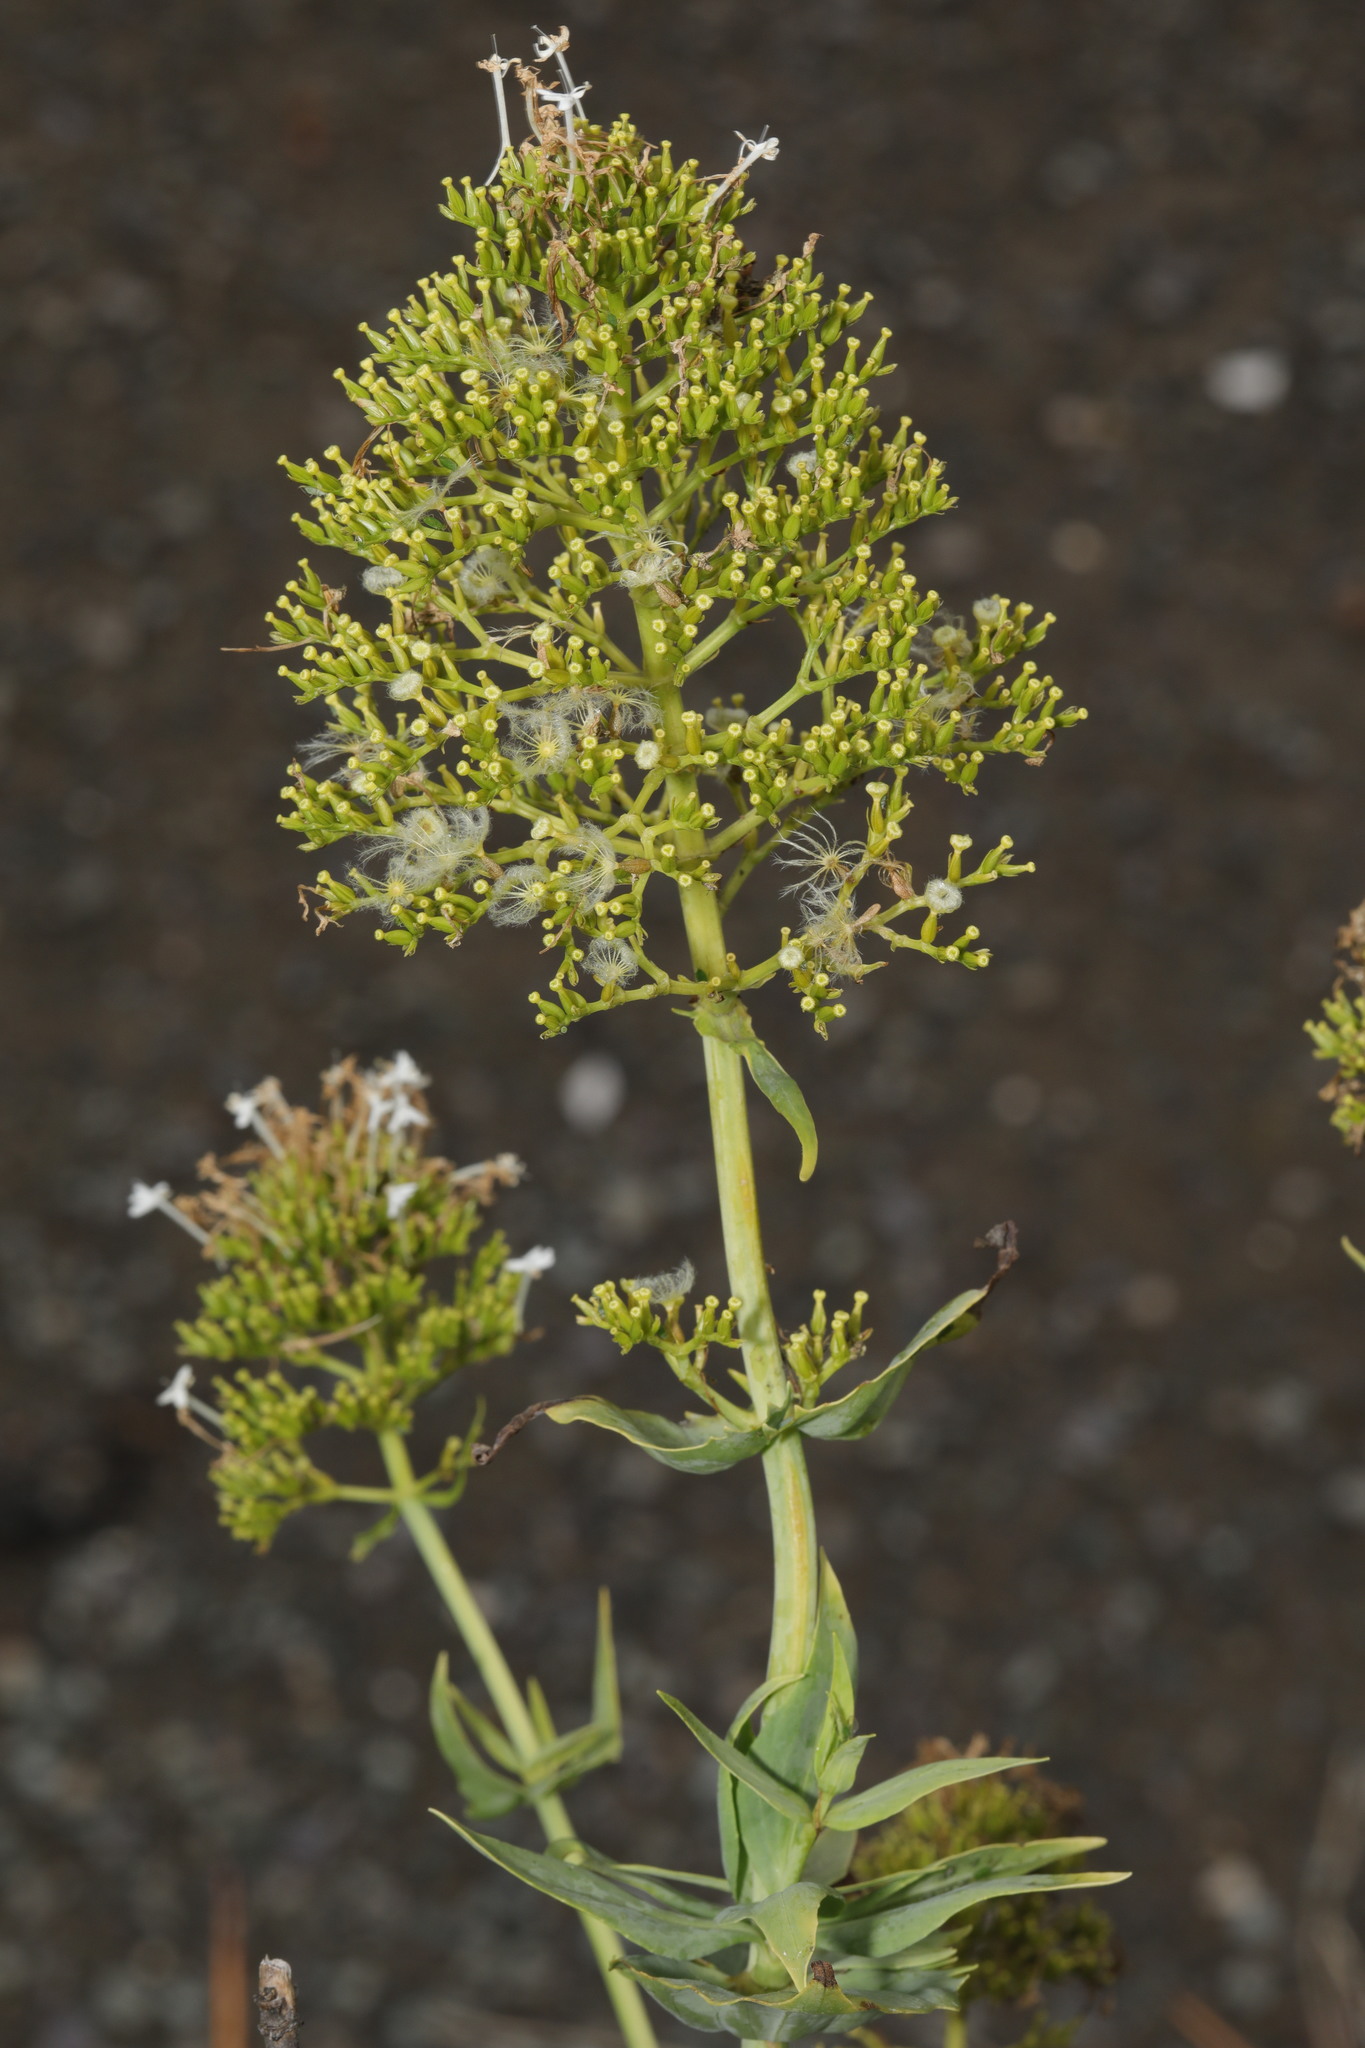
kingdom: Plantae
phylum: Tracheophyta
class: Magnoliopsida
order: Dipsacales
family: Caprifoliaceae
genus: Centranthus
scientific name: Centranthus ruber
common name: Red valerian
